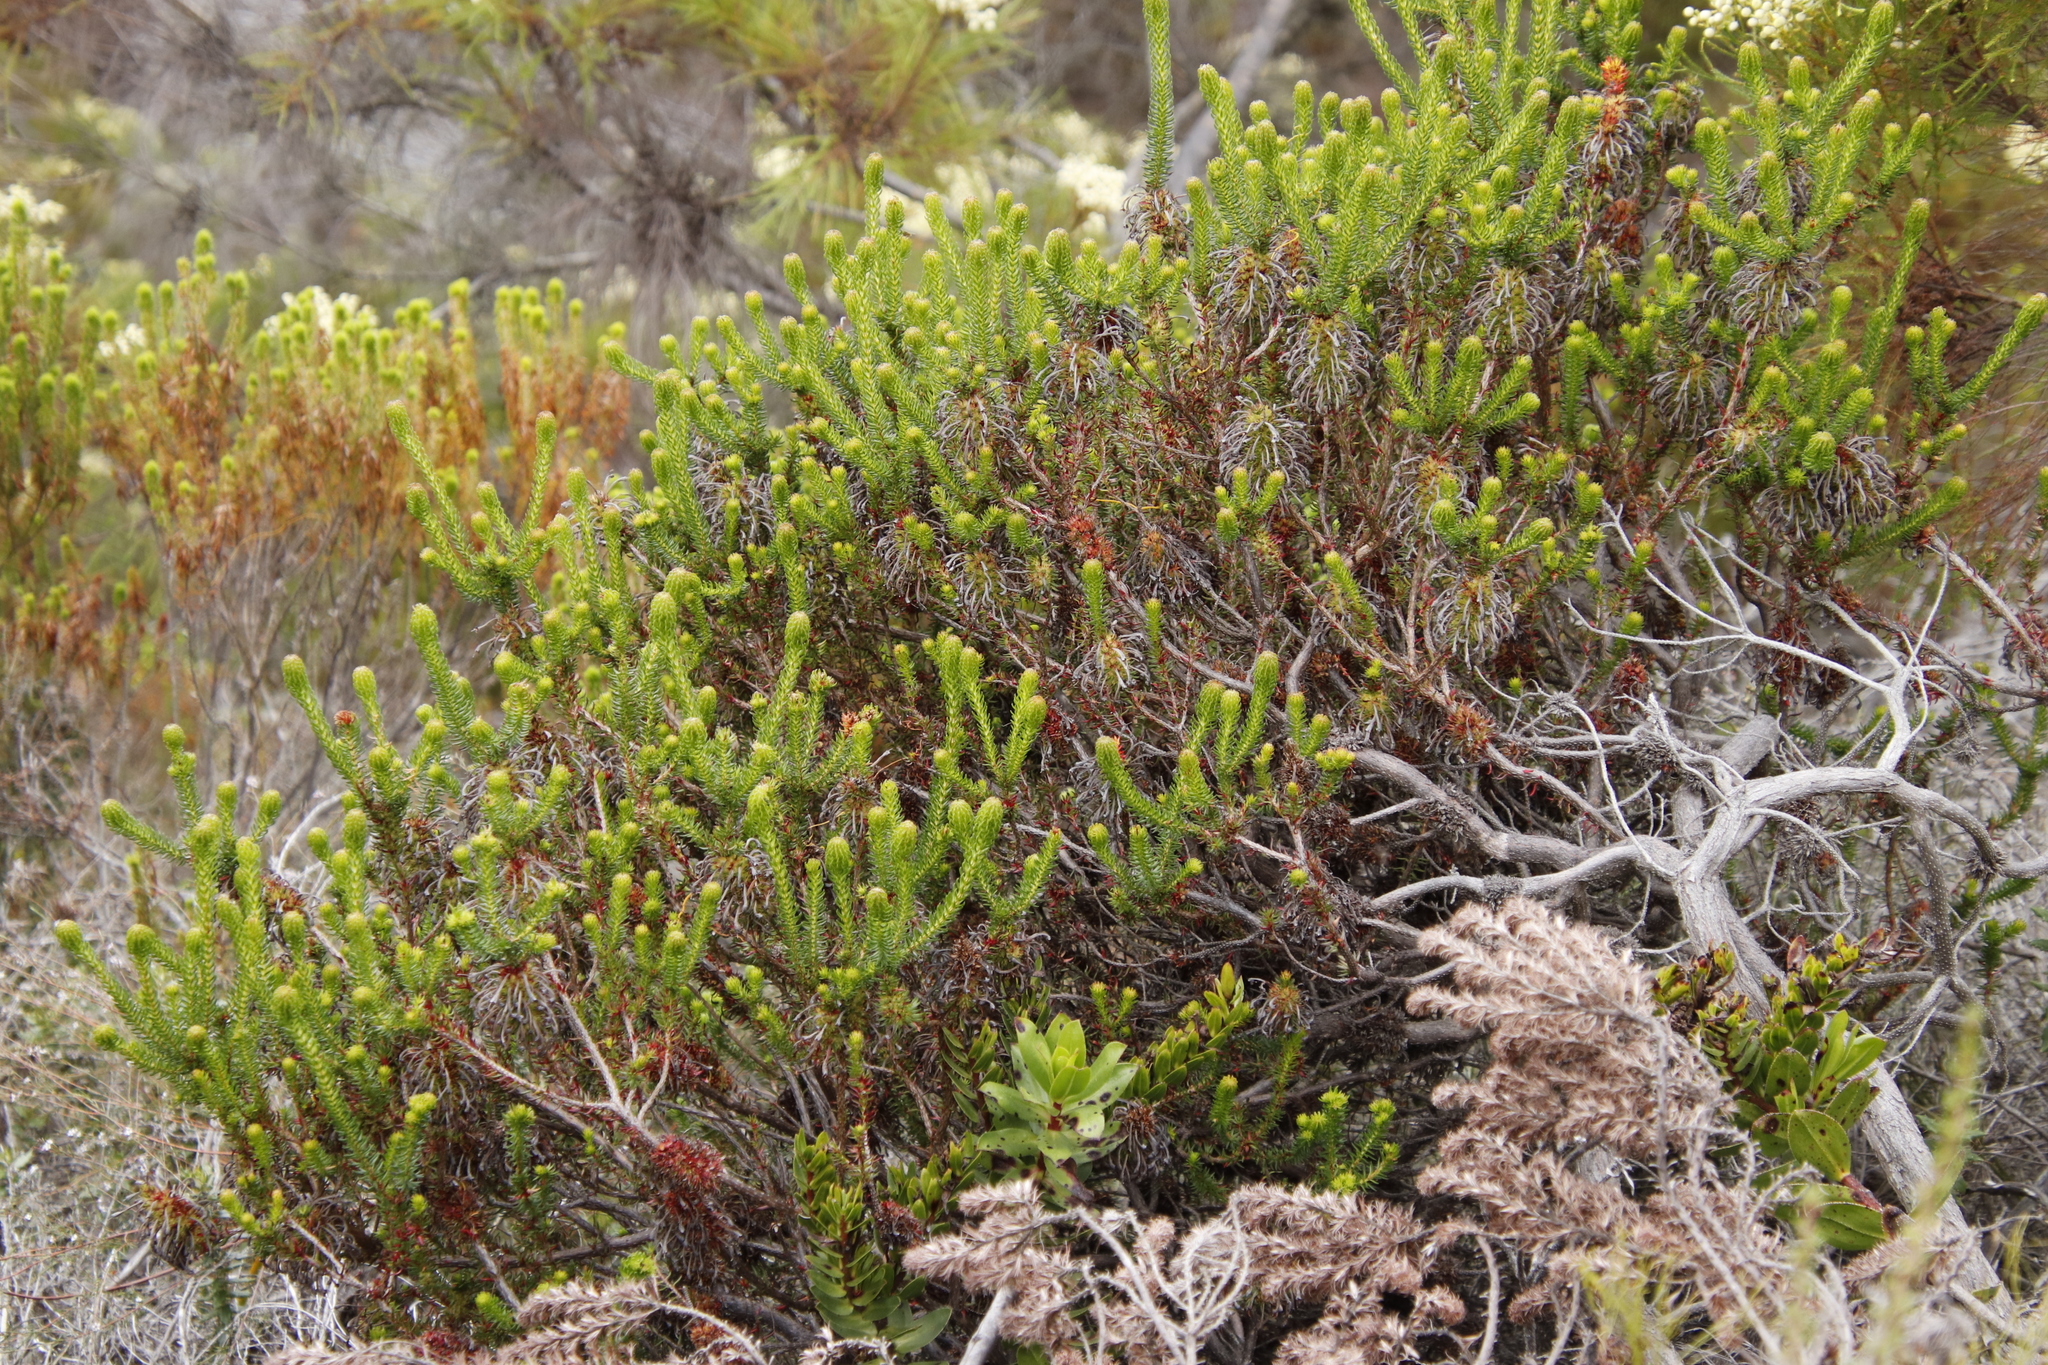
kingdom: Plantae
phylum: Tracheophyta
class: Magnoliopsida
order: Ericales
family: Ericaceae
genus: Erica
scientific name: Erica sessiliflora
